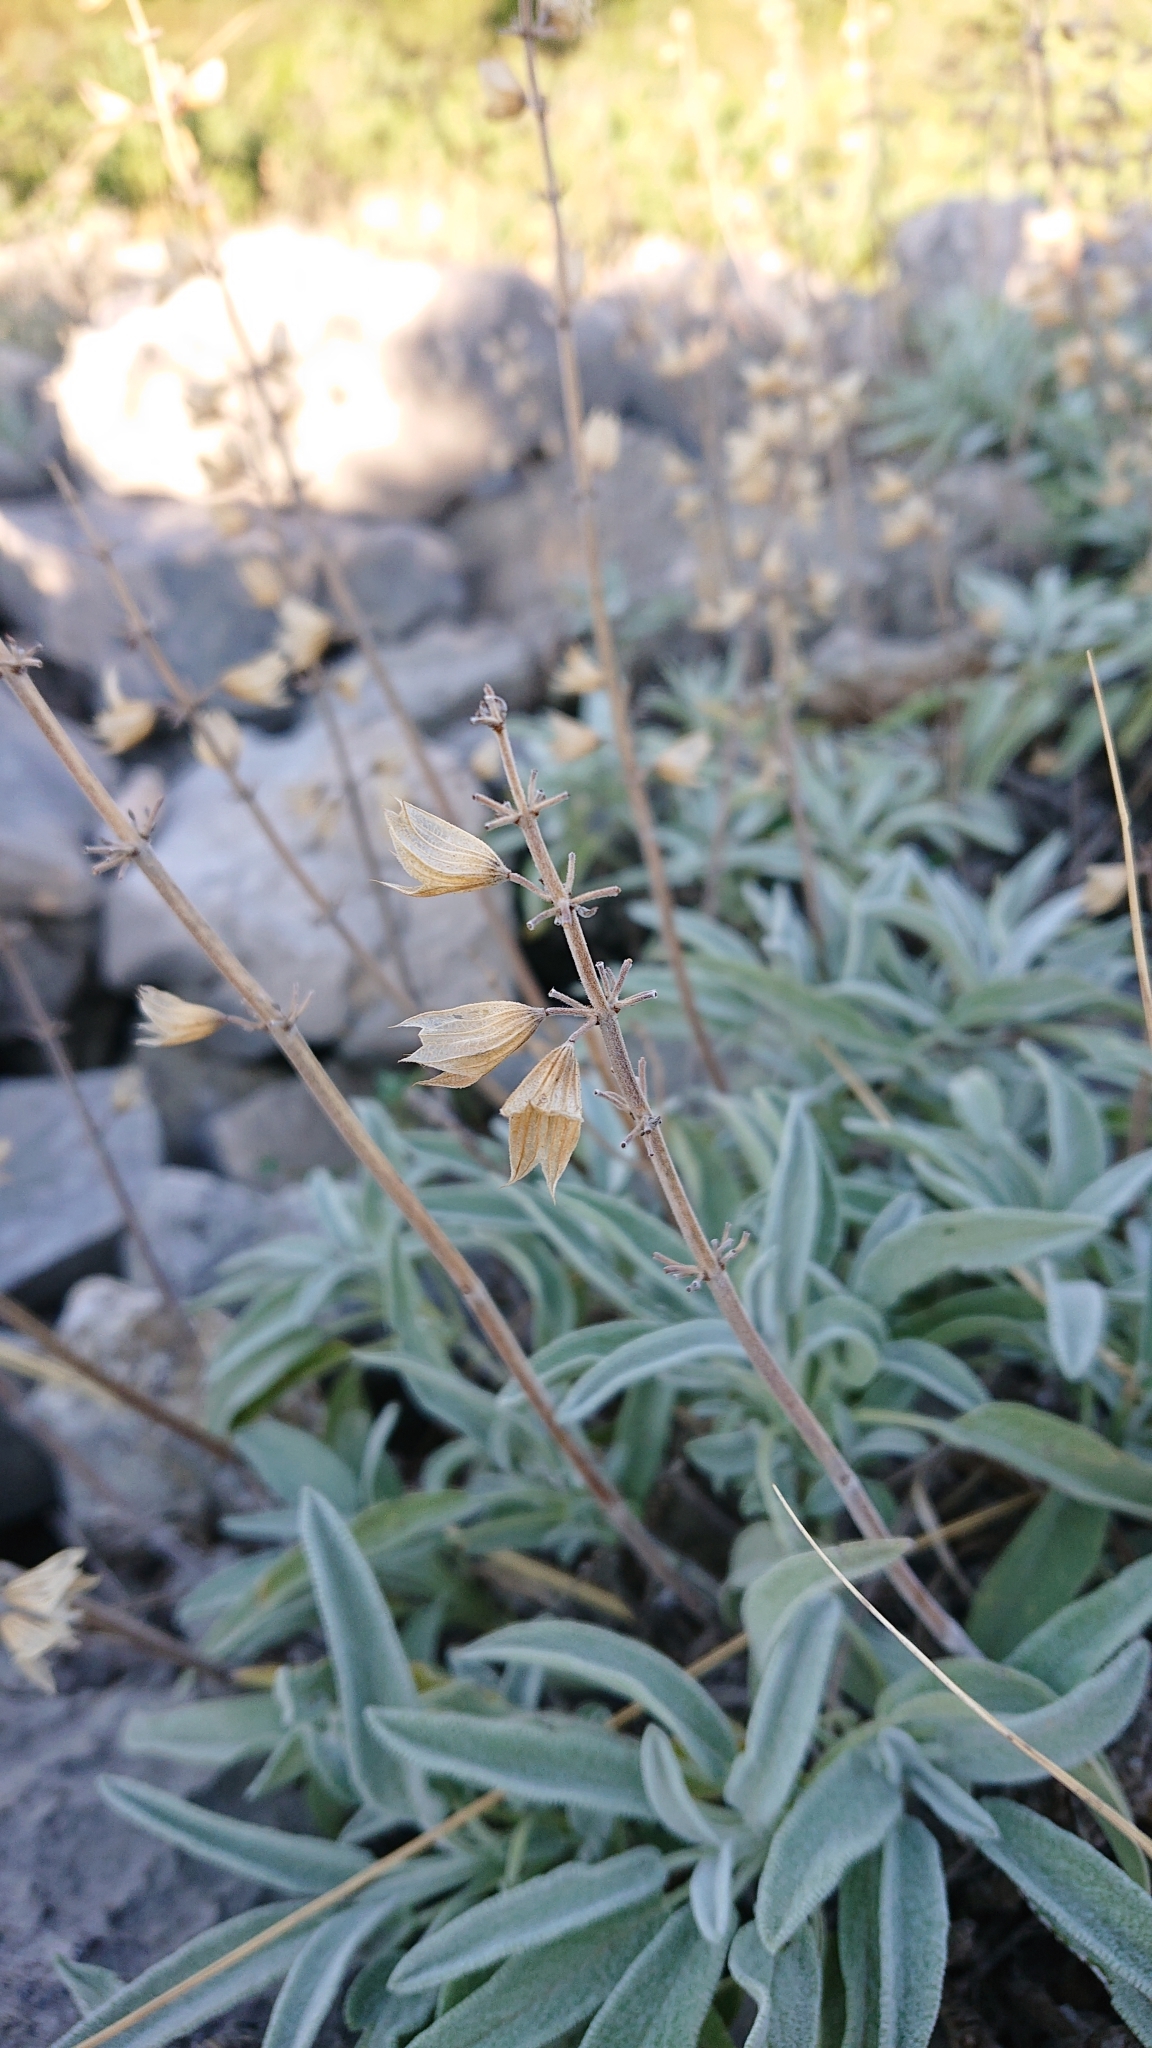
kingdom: Plantae
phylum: Tracheophyta
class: Magnoliopsida
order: Lamiales
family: Lamiaceae
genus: Salvia
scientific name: Salvia officinalis
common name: Sage
